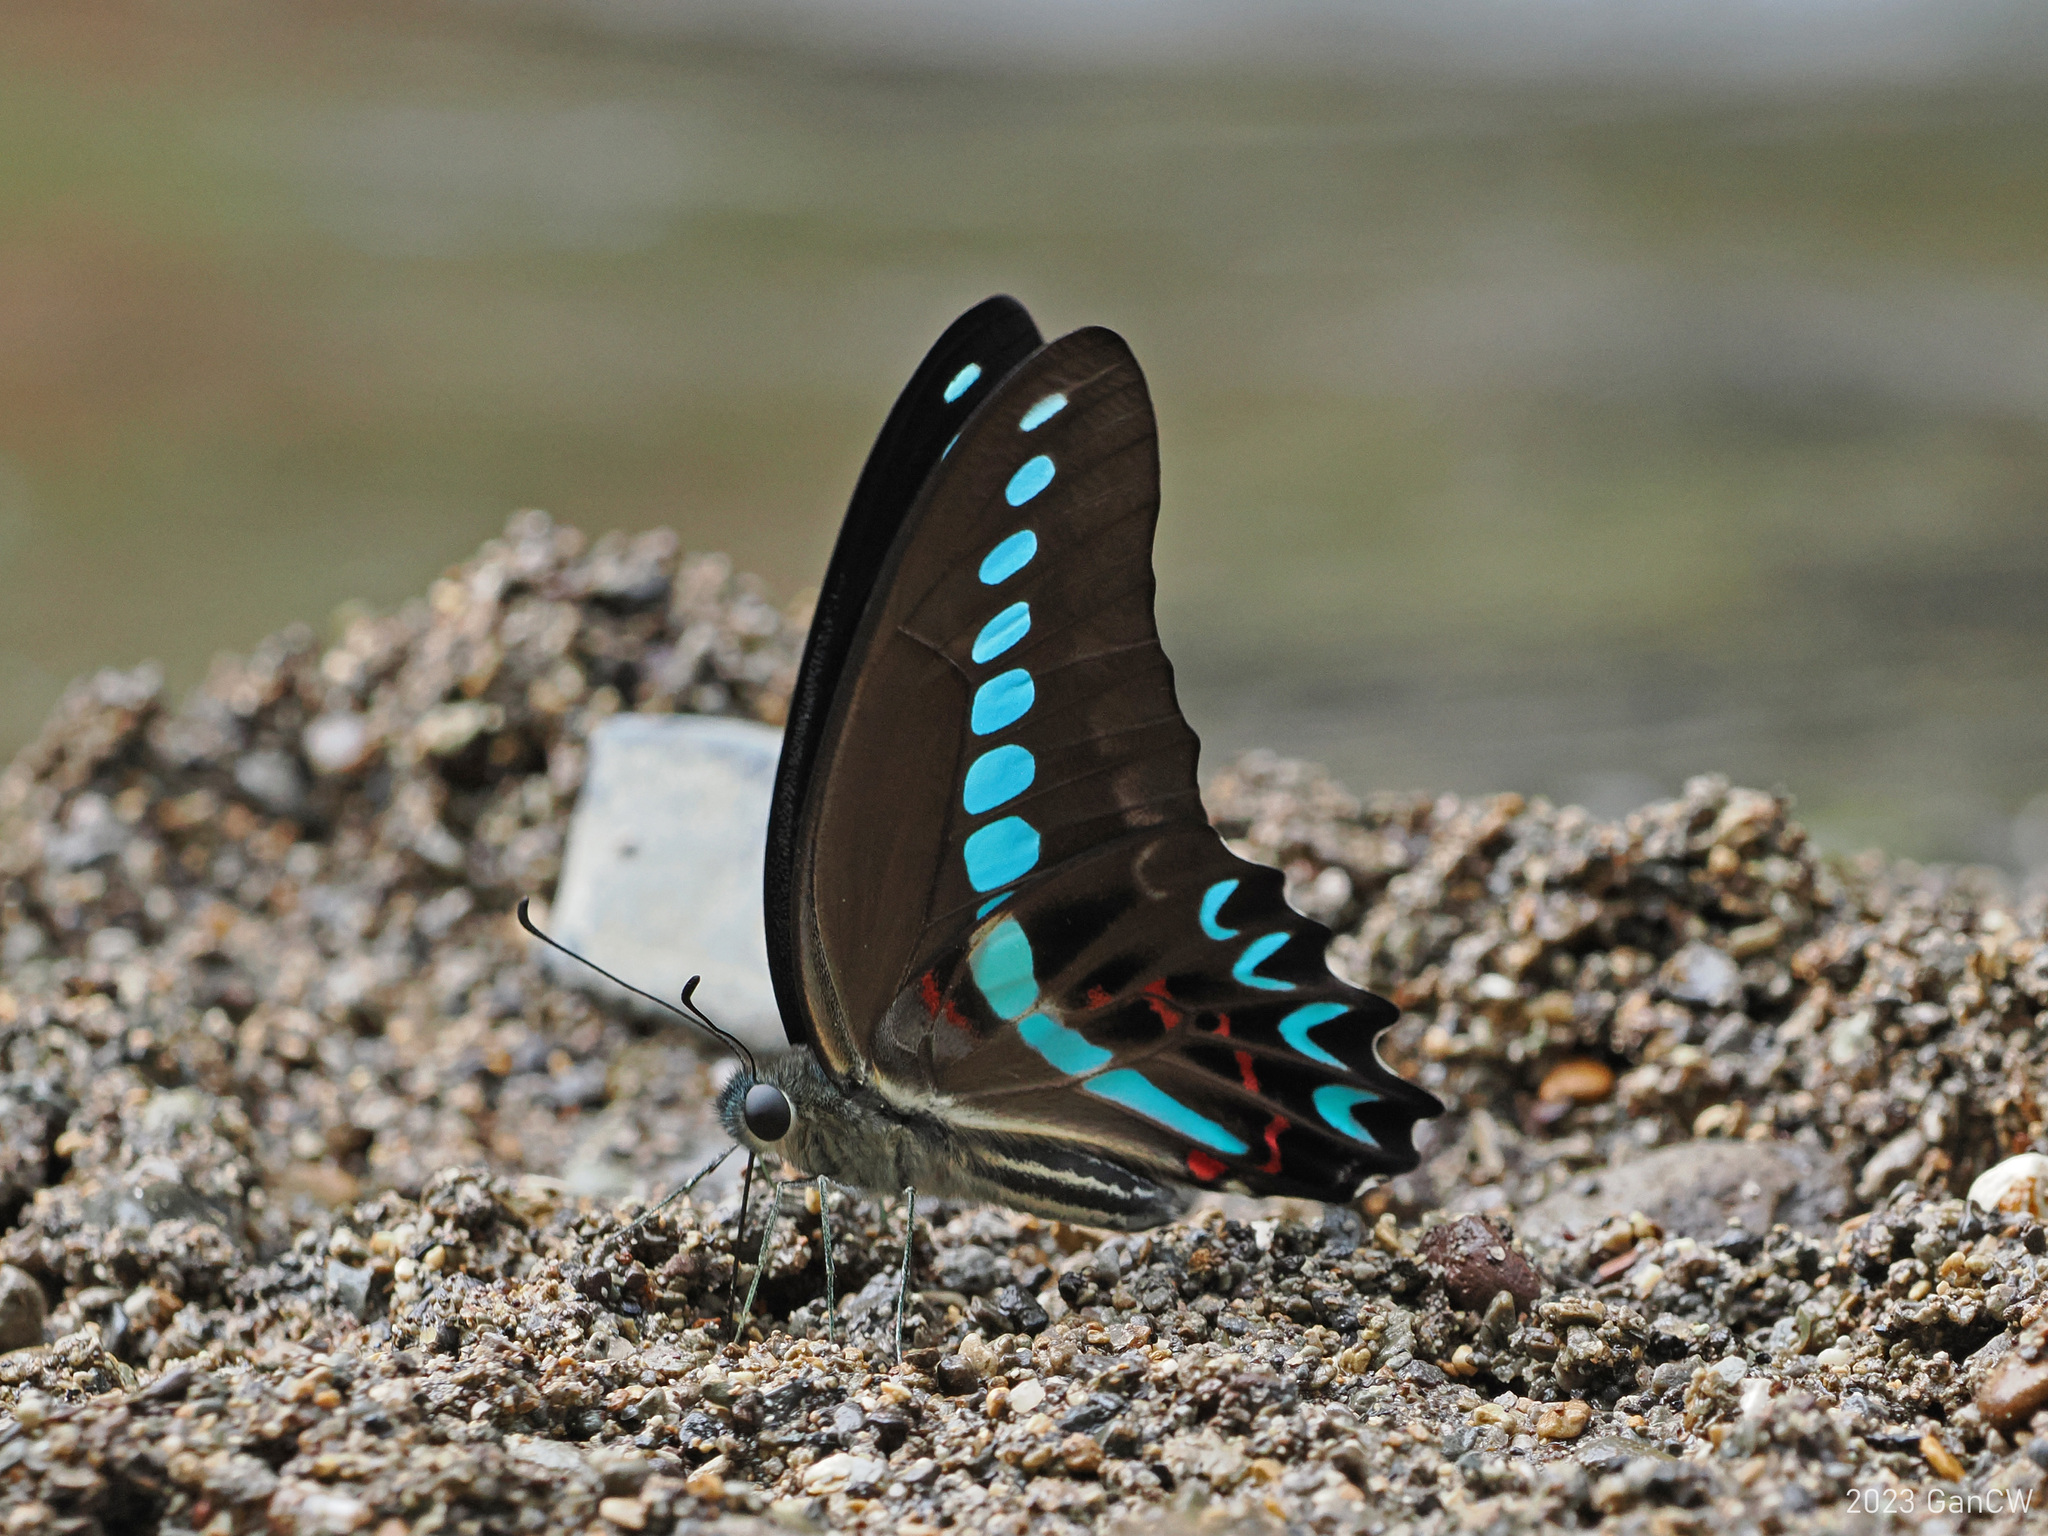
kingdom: Animalia
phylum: Arthropoda
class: Insecta
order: Lepidoptera
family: Papilionidae
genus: Graphium
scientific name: Graphium milon
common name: Milon's swallowtail
